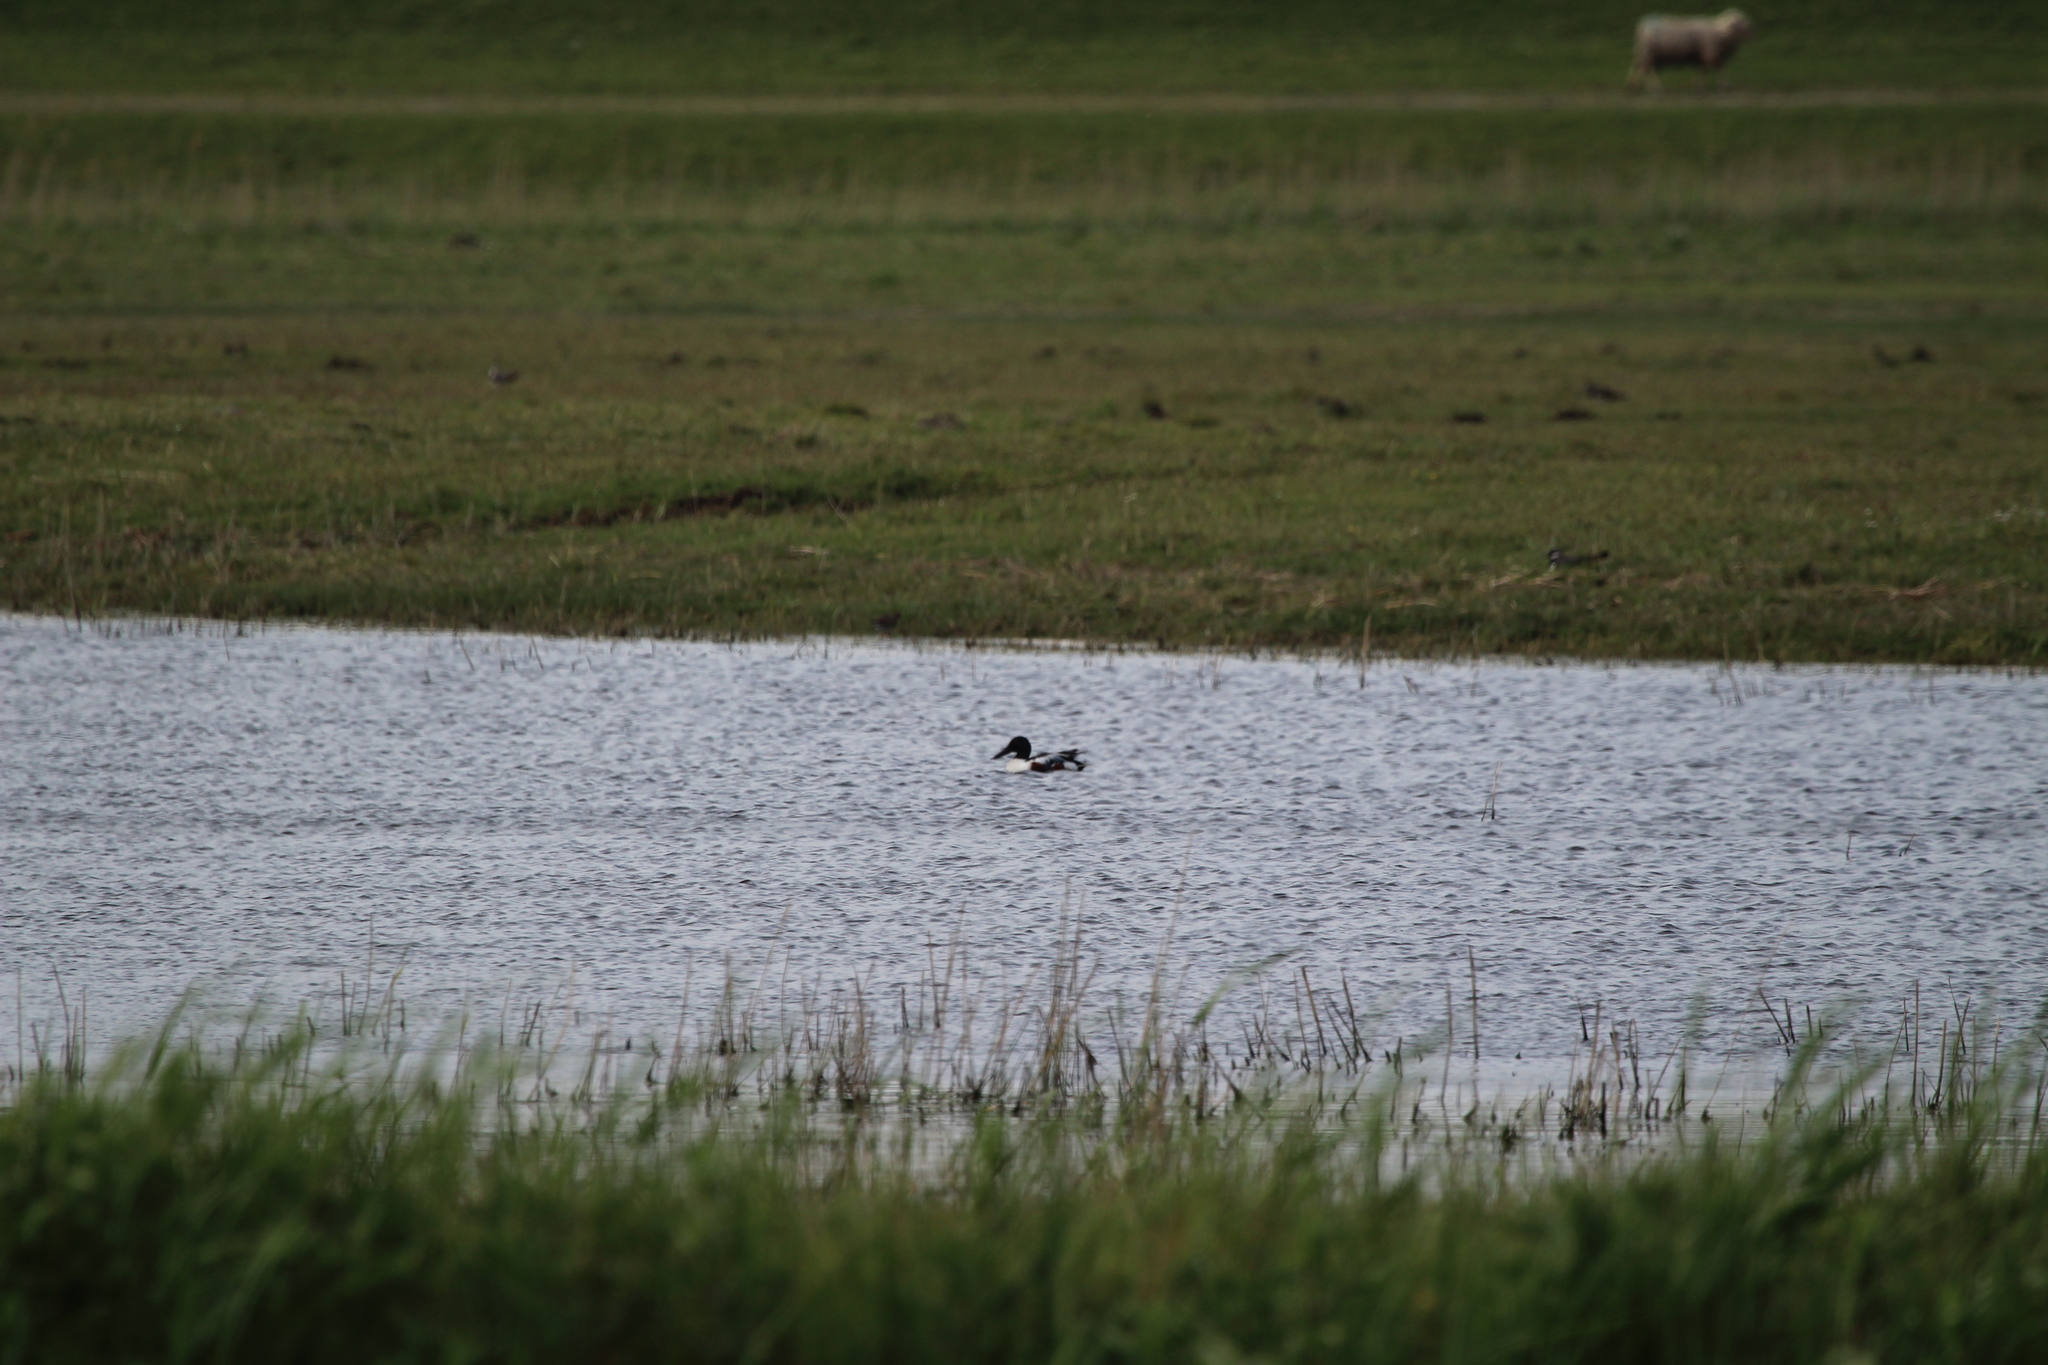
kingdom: Animalia
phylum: Chordata
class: Aves
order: Anseriformes
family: Anatidae
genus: Spatula
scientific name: Spatula clypeata
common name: Northern shoveler
